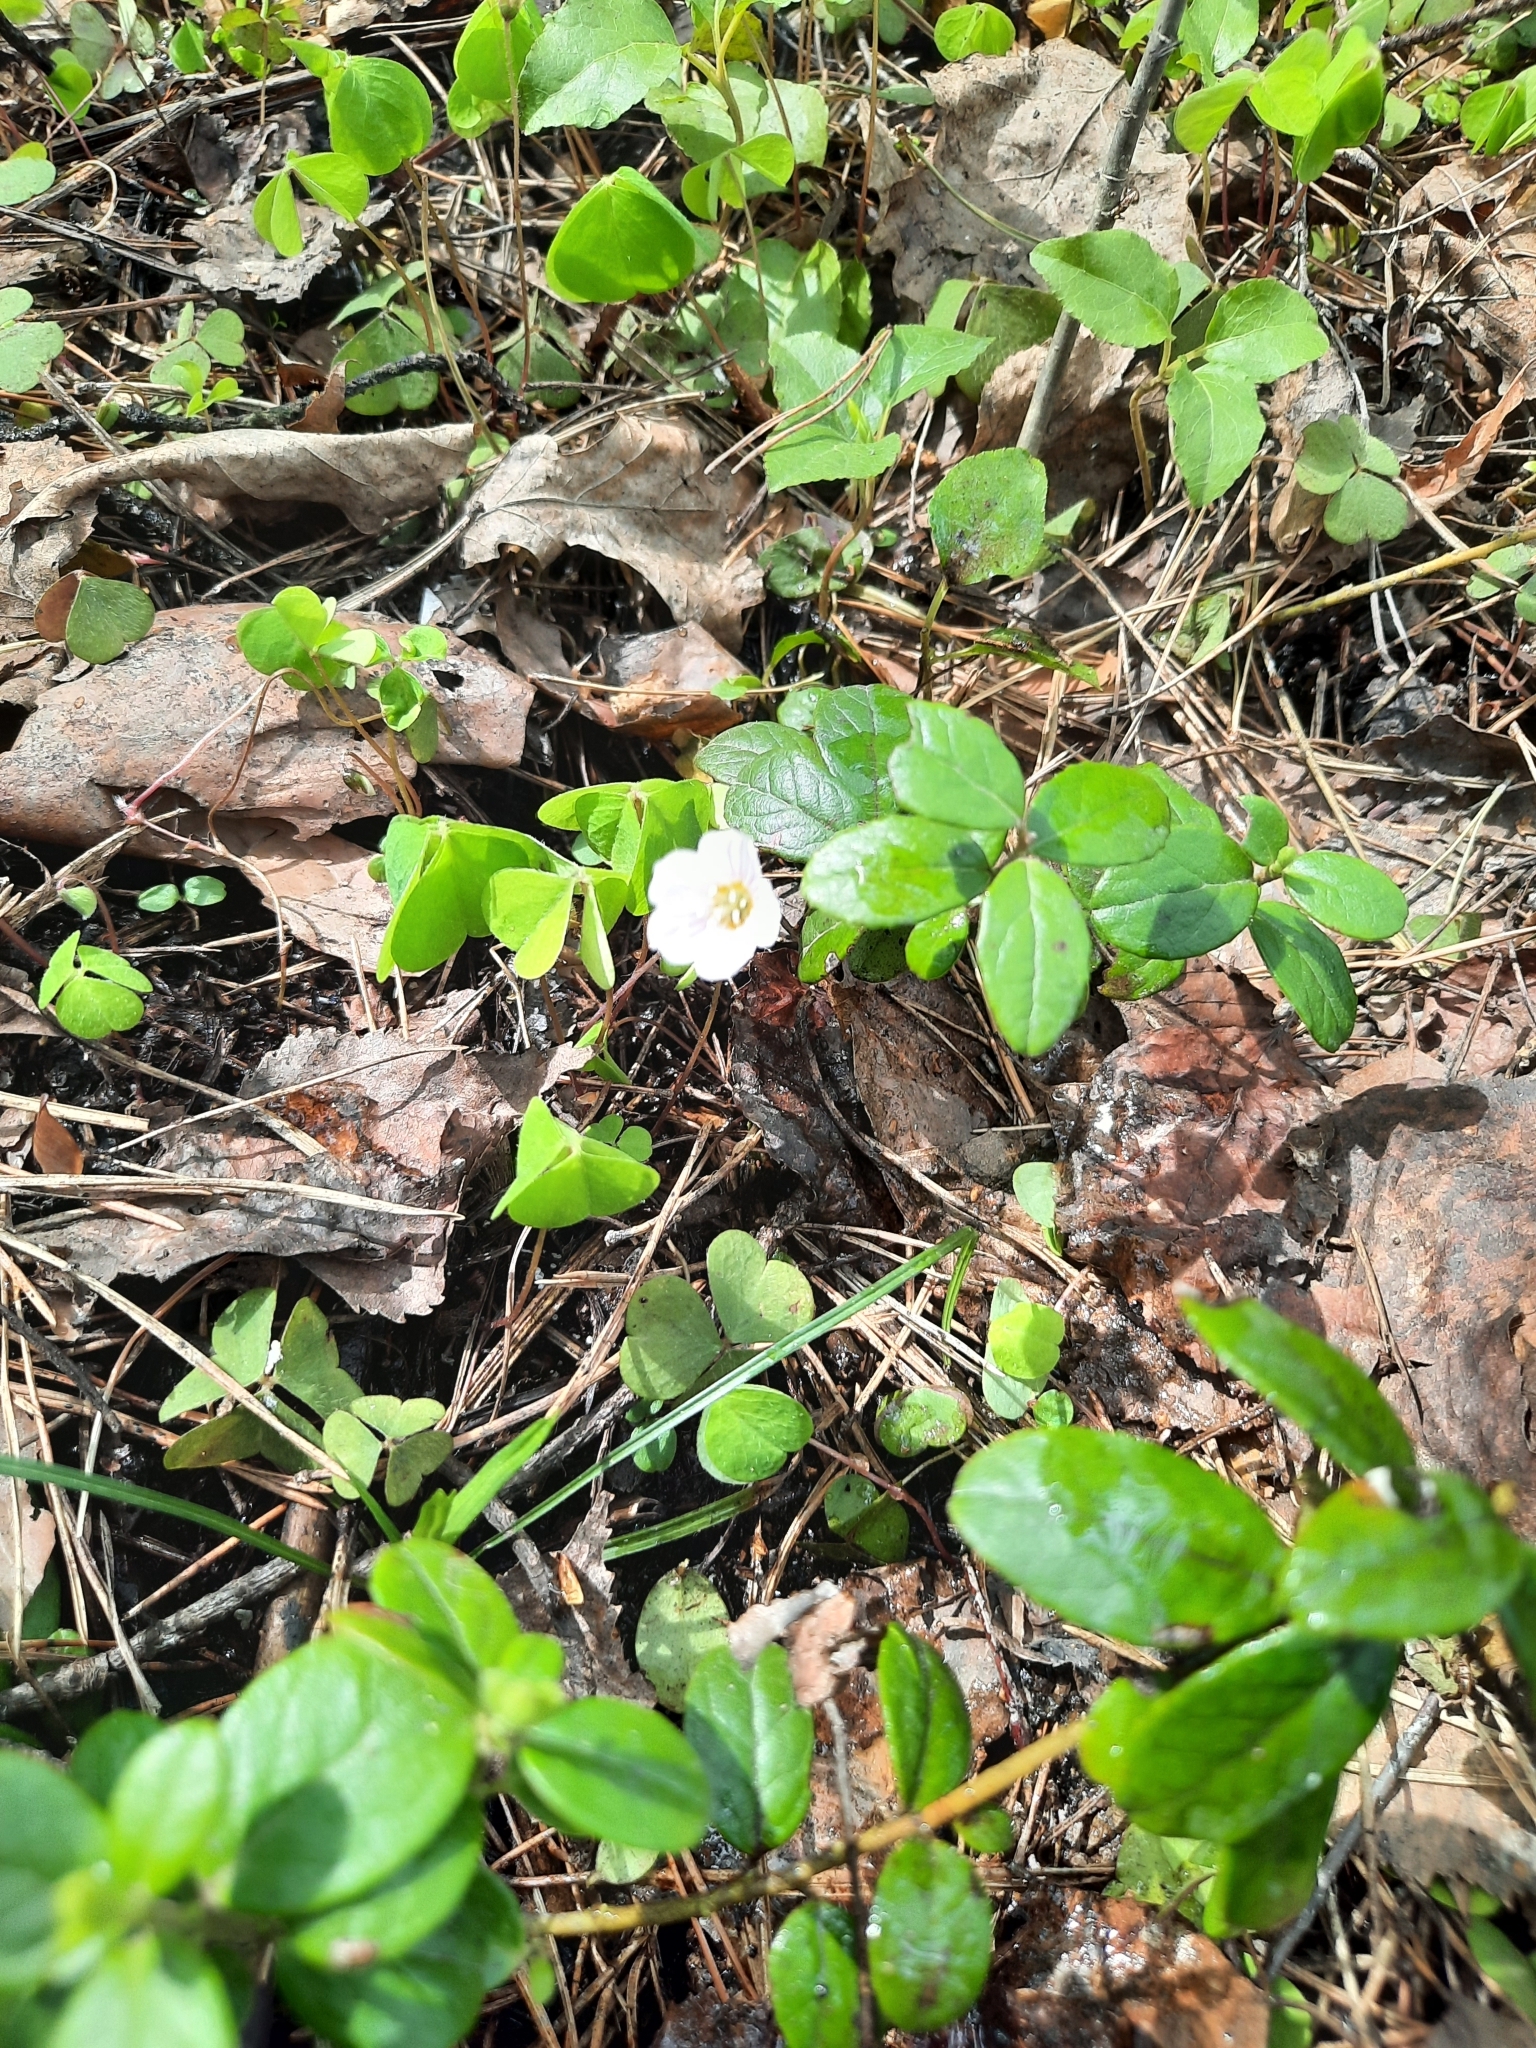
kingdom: Plantae
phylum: Tracheophyta
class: Magnoliopsida
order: Oxalidales
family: Oxalidaceae
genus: Oxalis
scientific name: Oxalis acetosella
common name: Wood-sorrel
